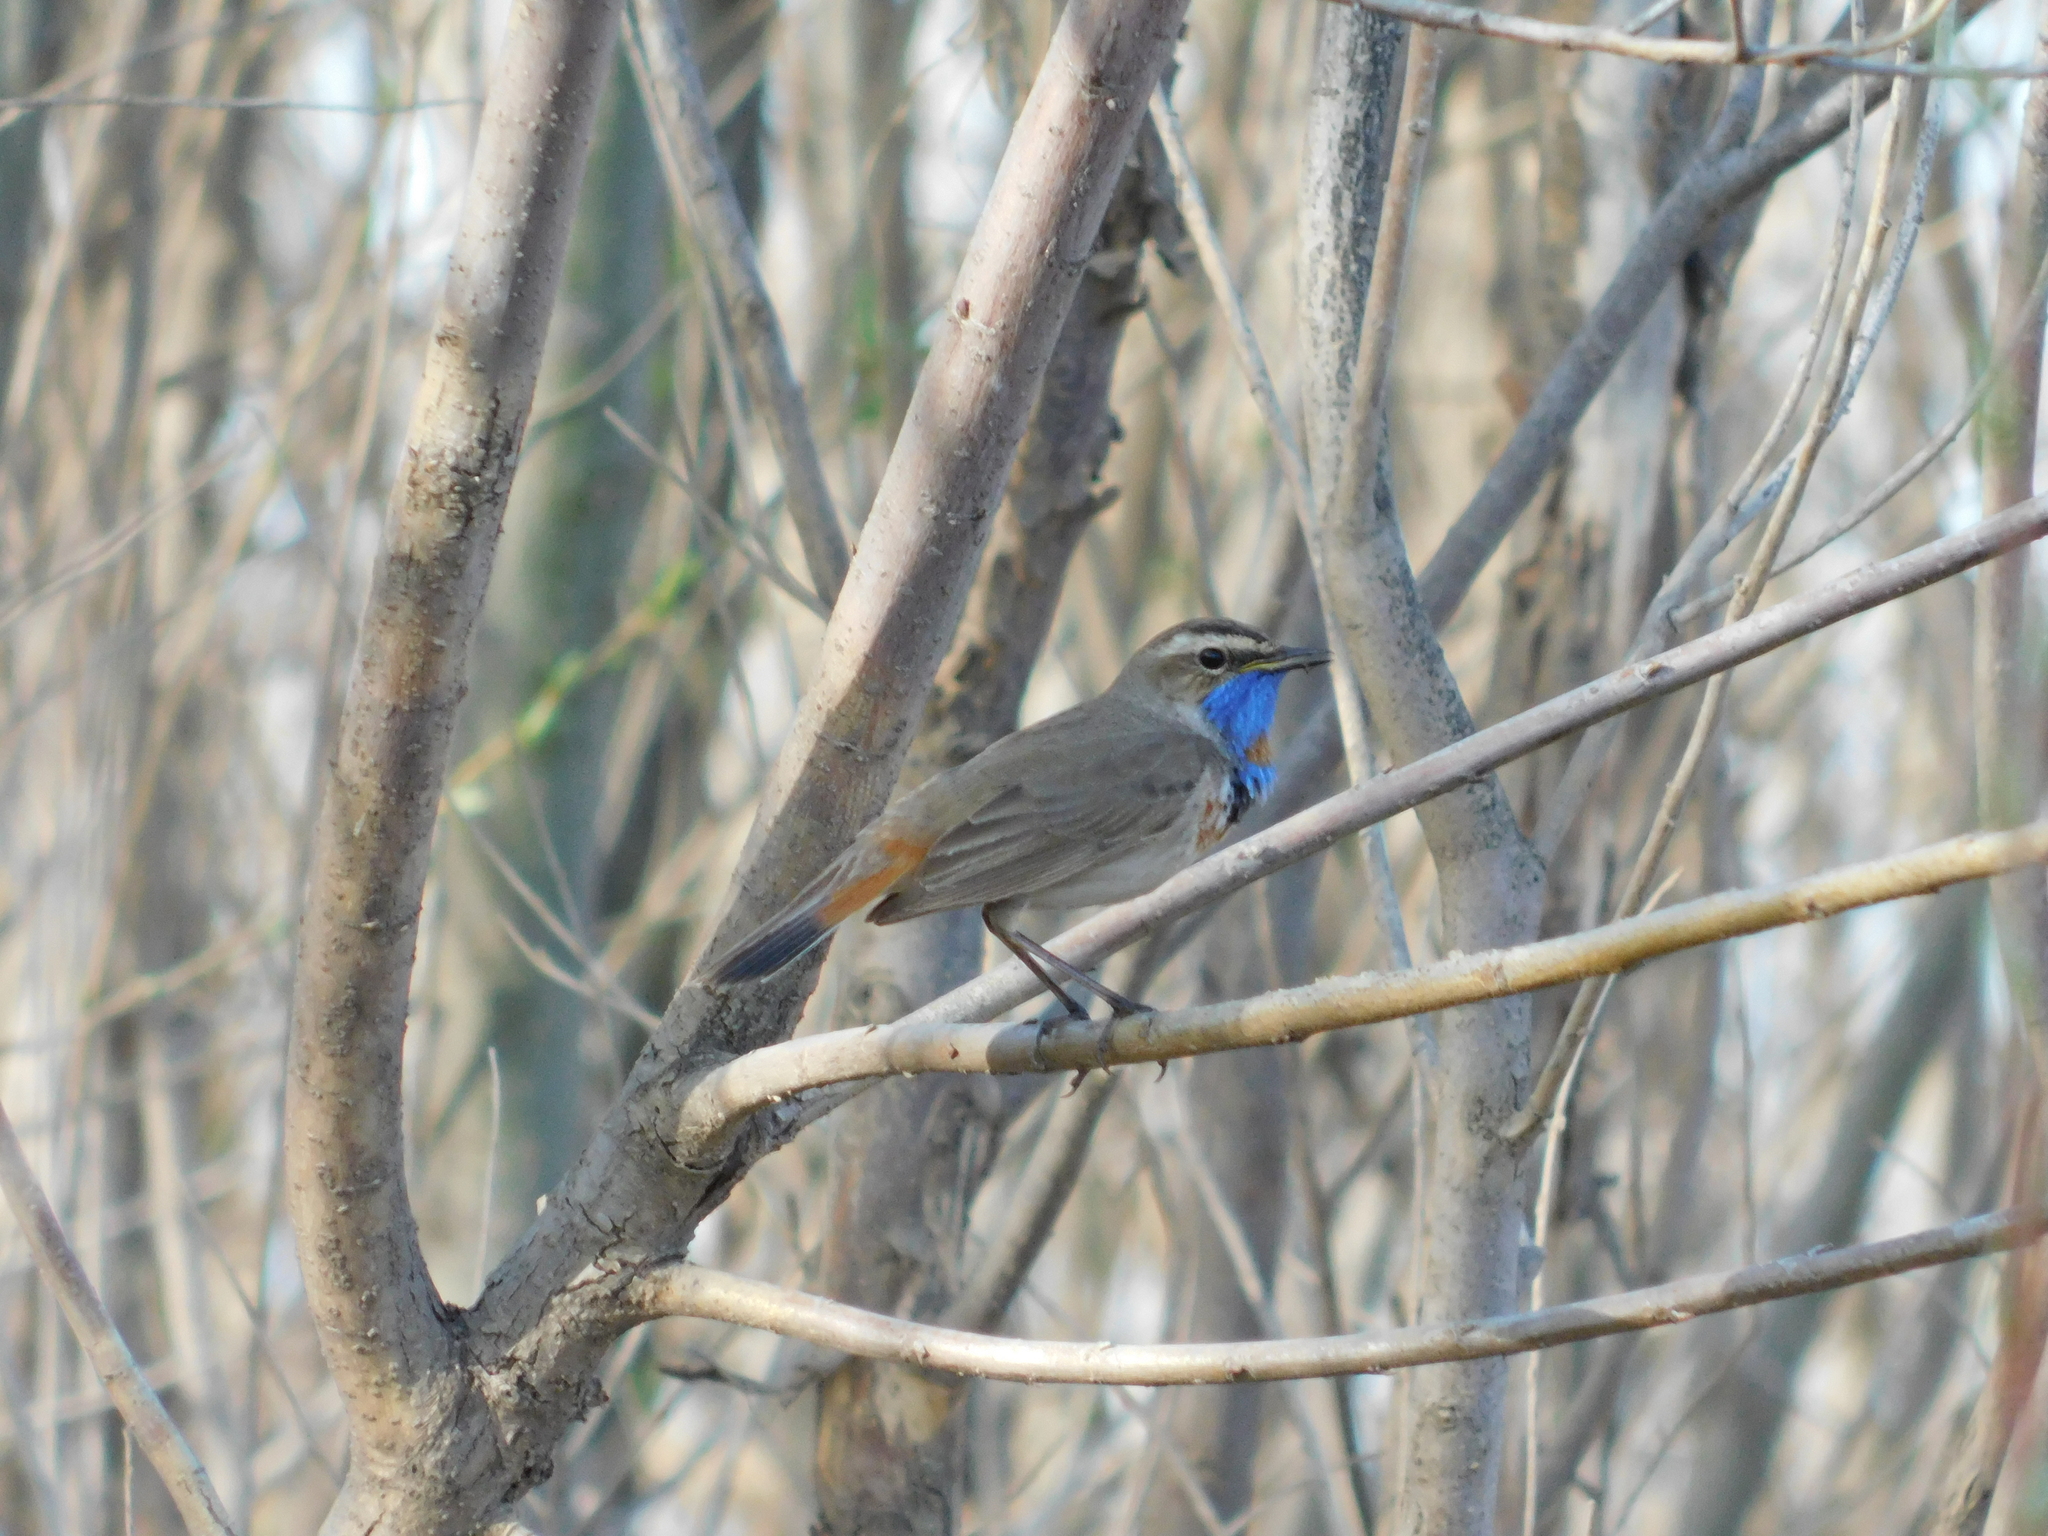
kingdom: Animalia
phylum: Chordata
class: Aves
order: Passeriformes
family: Muscicapidae
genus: Luscinia
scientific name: Luscinia svecica
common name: Bluethroat
